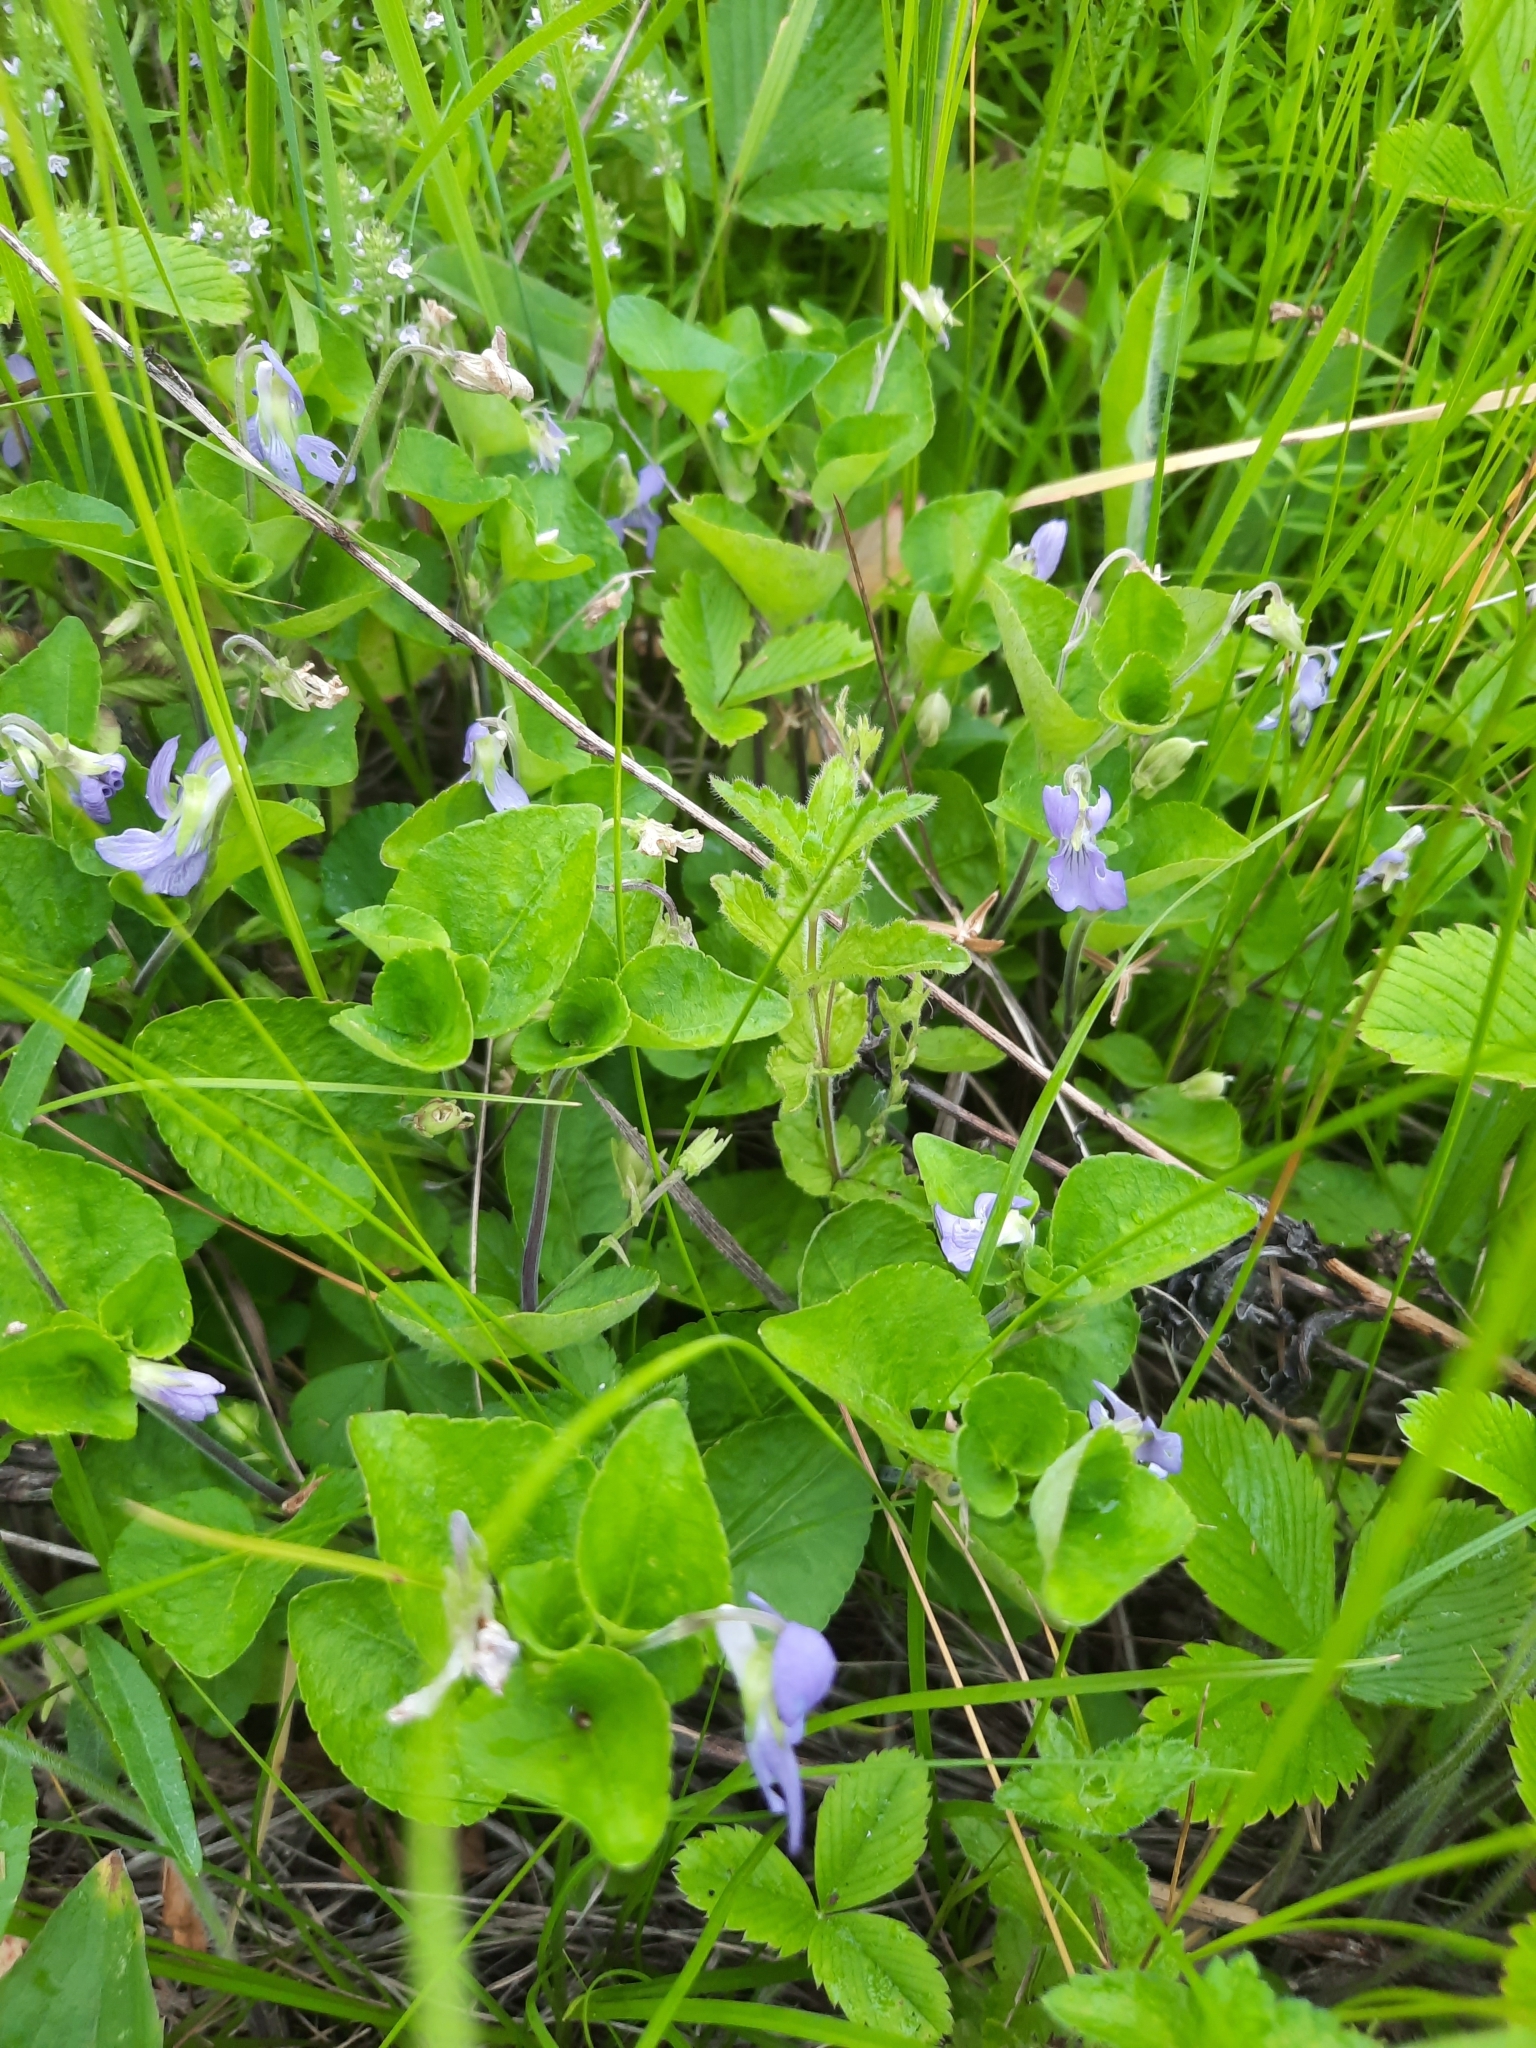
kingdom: Plantae
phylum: Tracheophyta
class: Magnoliopsida
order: Malpighiales
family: Violaceae
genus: Viola
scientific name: Viola braunii
